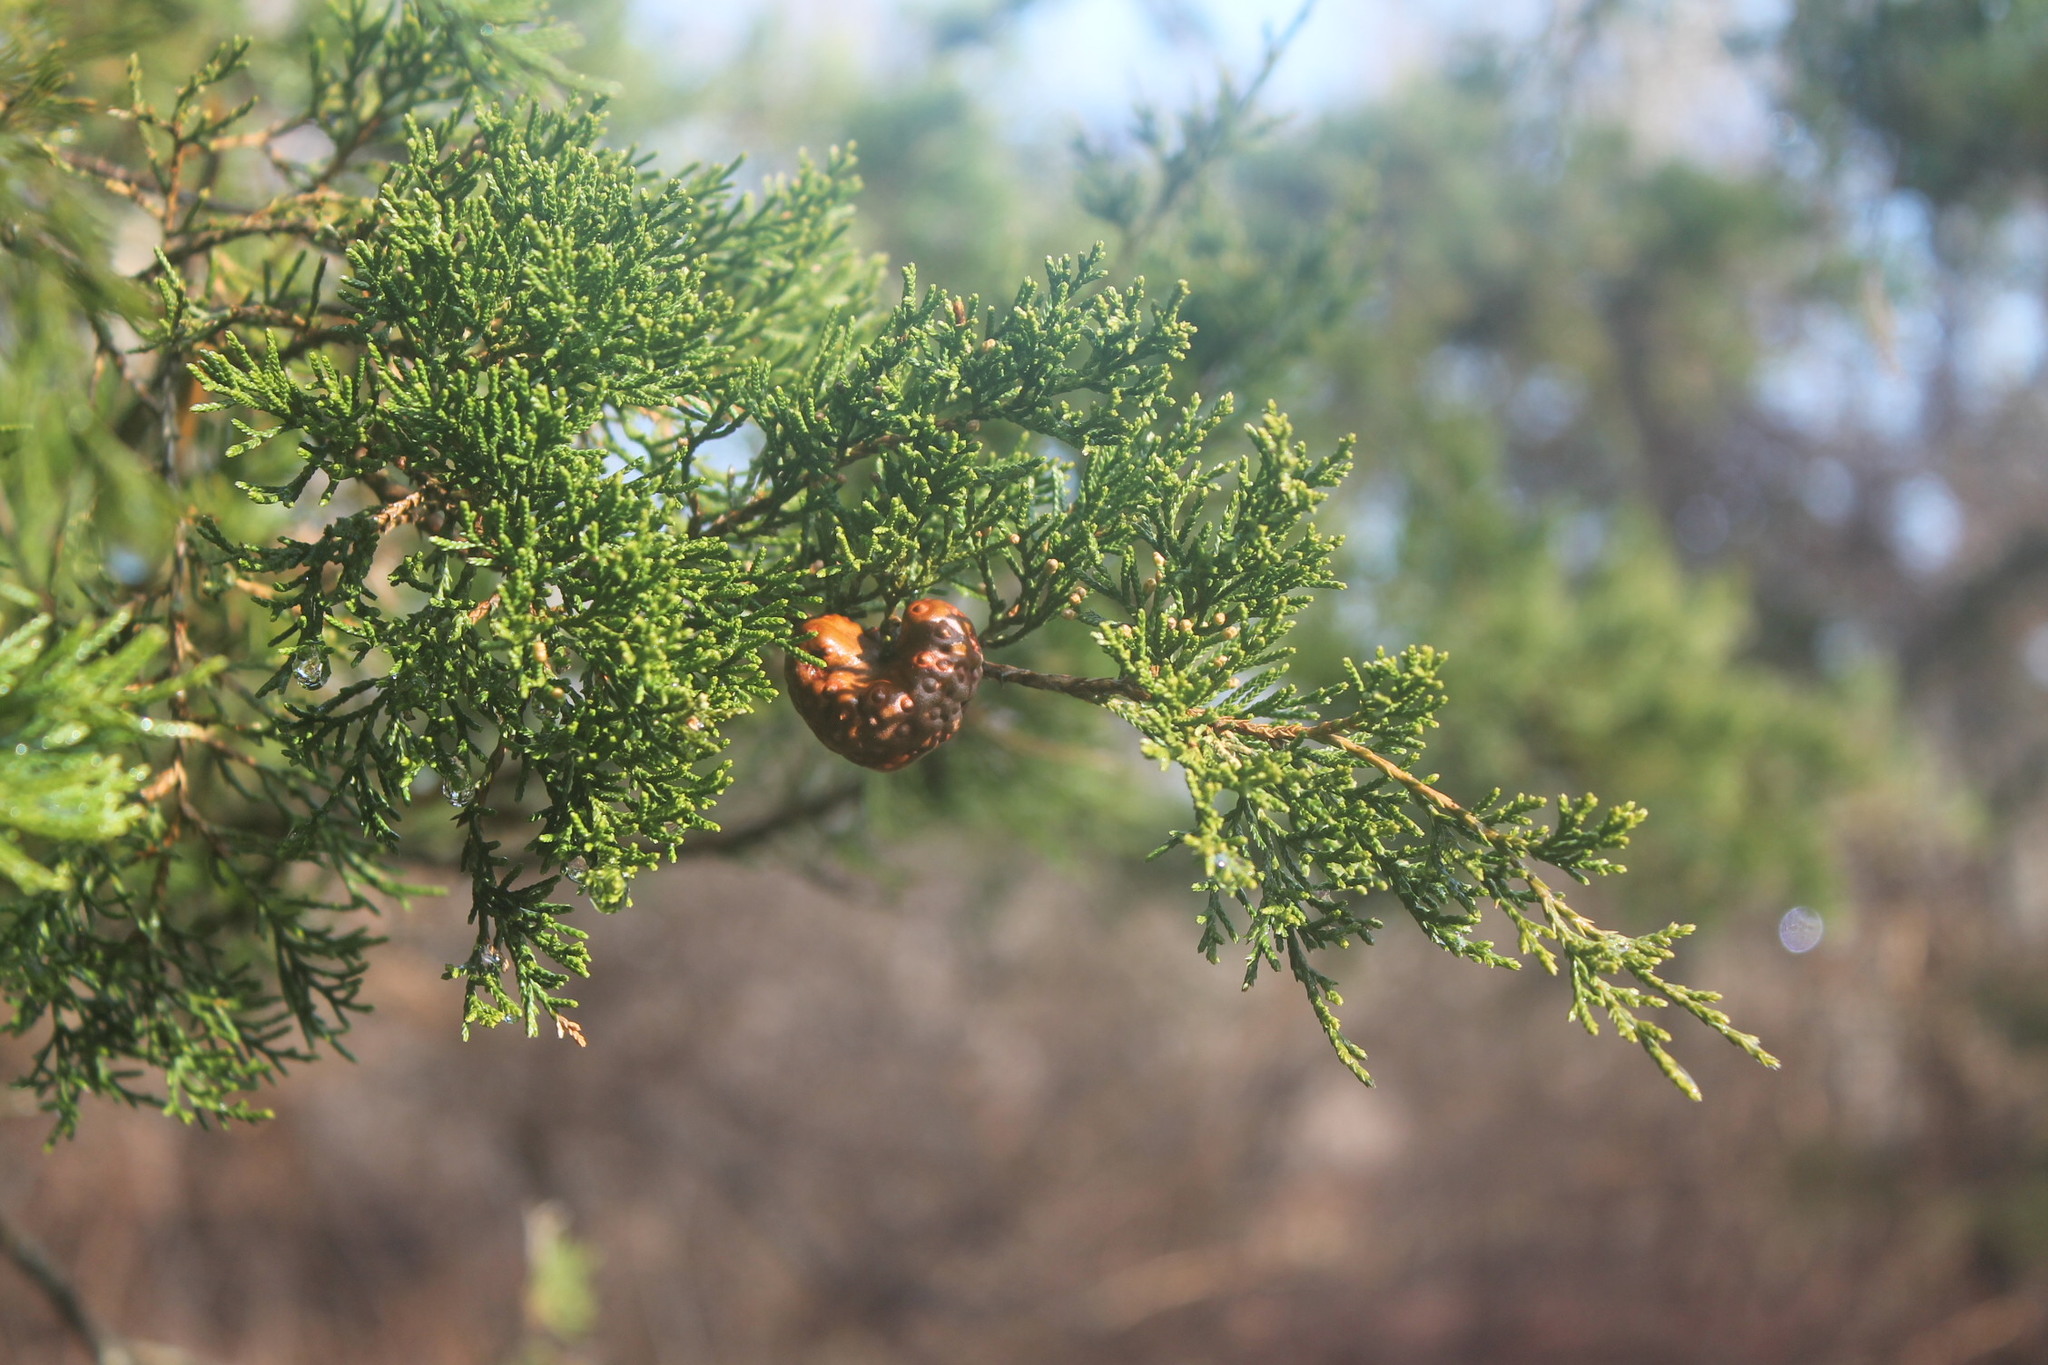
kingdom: Fungi
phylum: Basidiomycota
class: Pucciniomycetes
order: Pucciniales
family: Gymnosporangiaceae
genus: Gymnosporangium
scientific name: Gymnosporangium juniperi-virginianae
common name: Juniper-apple rust
